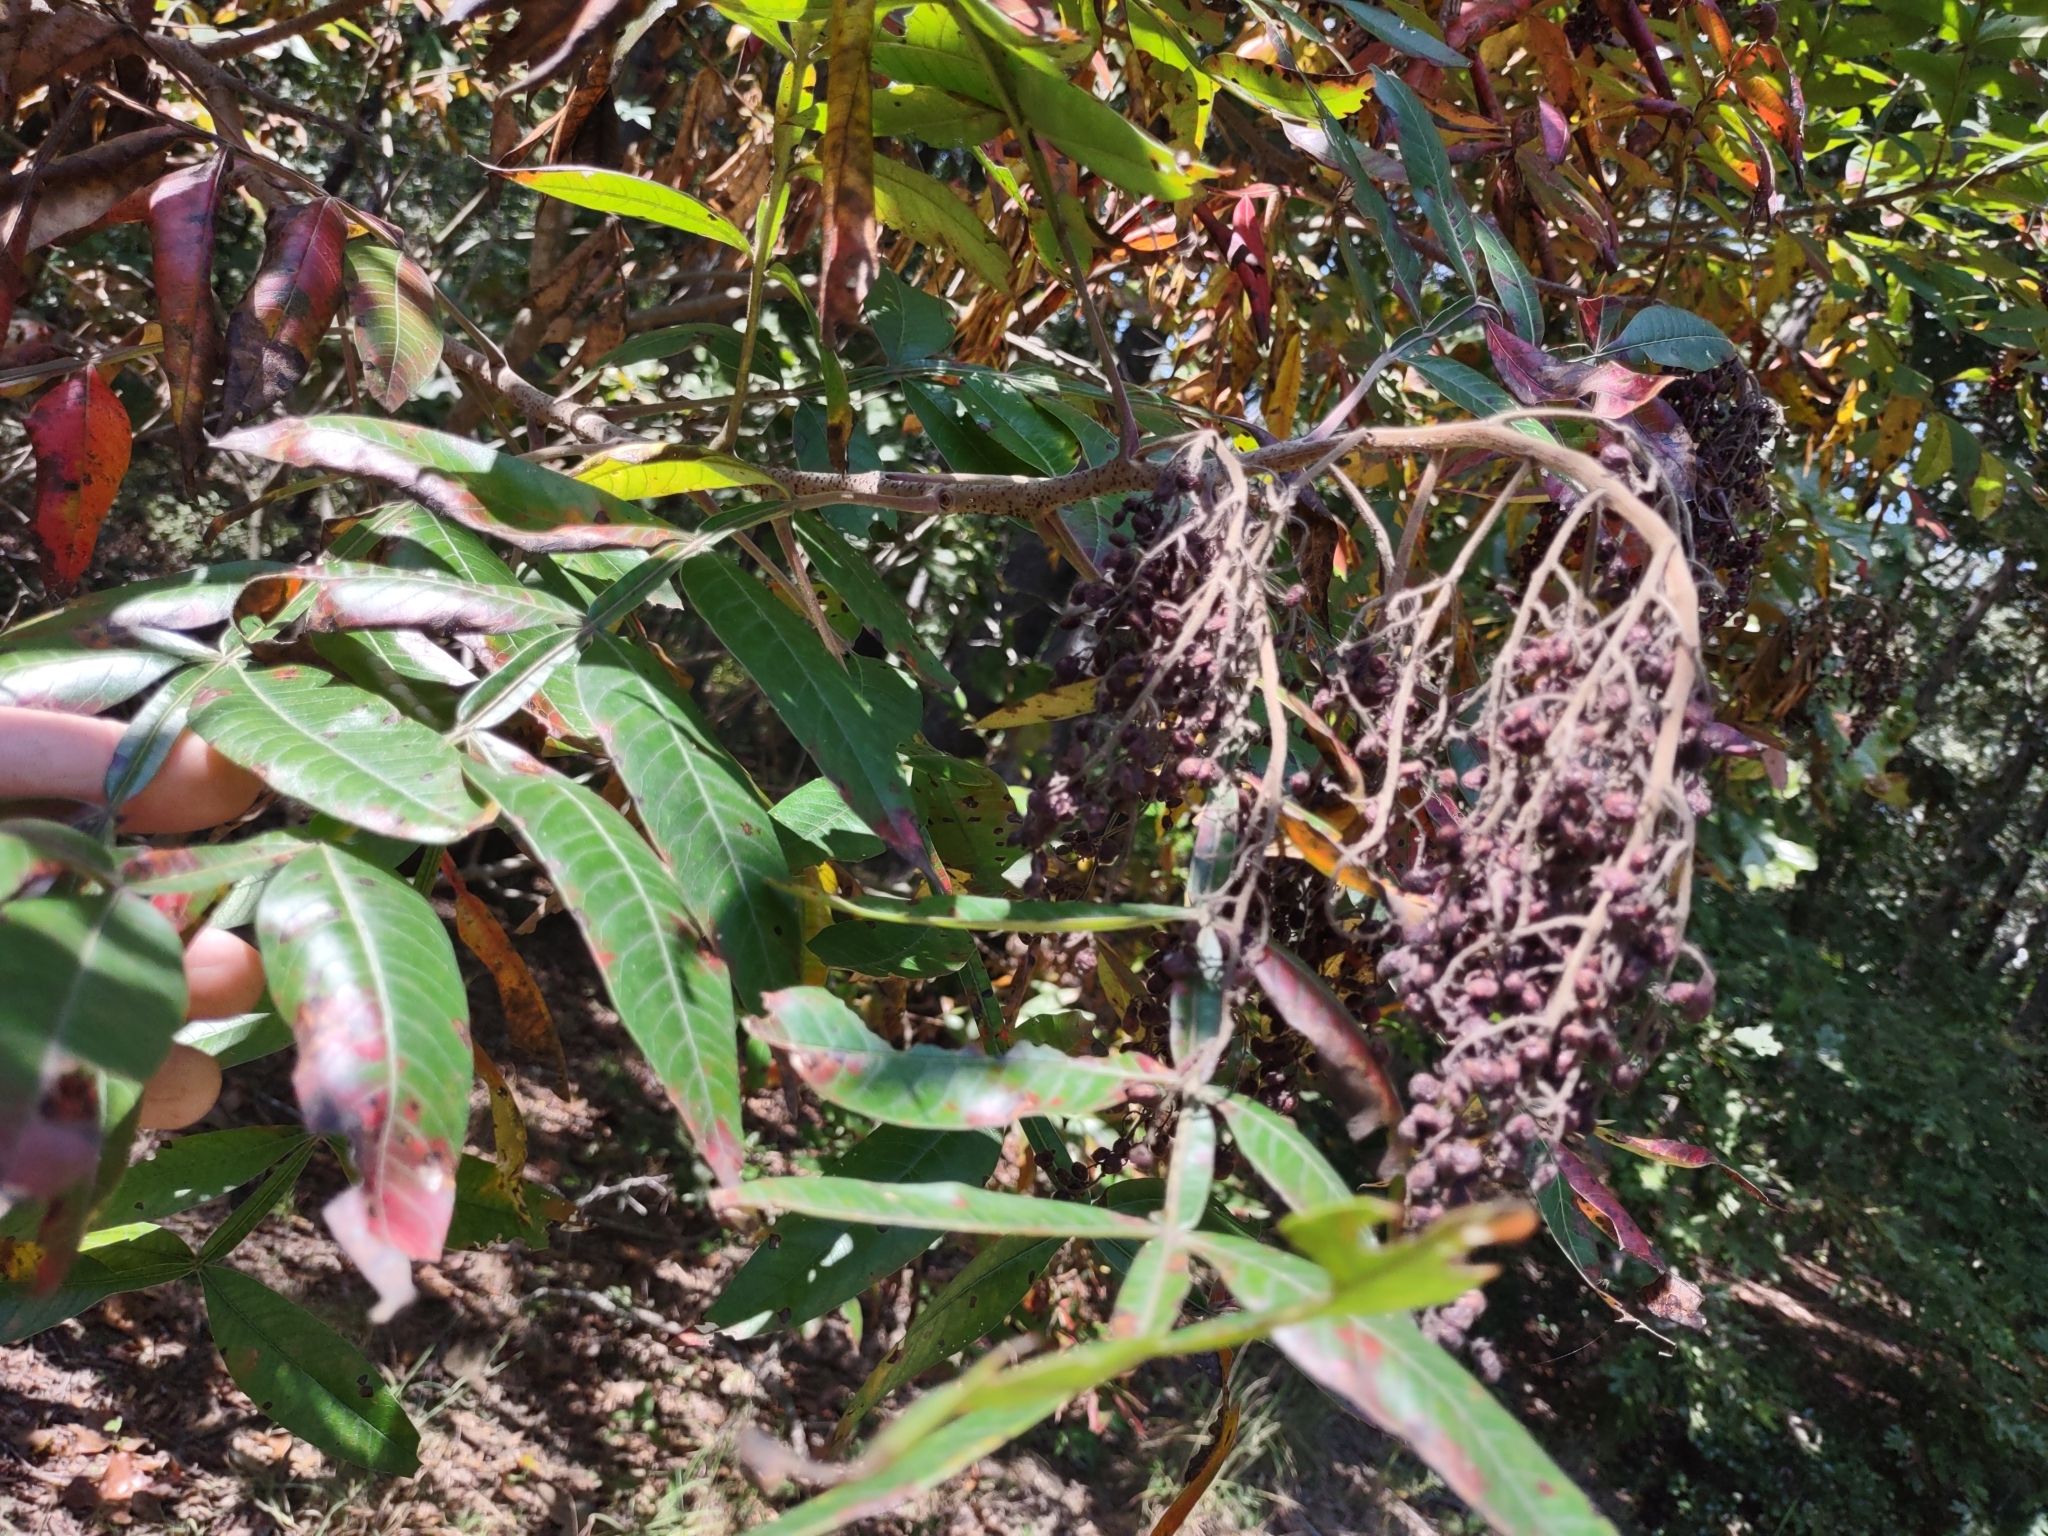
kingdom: Plantae
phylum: Tracheophyta
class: Magnoliopsida
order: Sapindales
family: Anacardiaceae
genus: Rhus
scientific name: Rhus copallina
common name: Shining sumac
